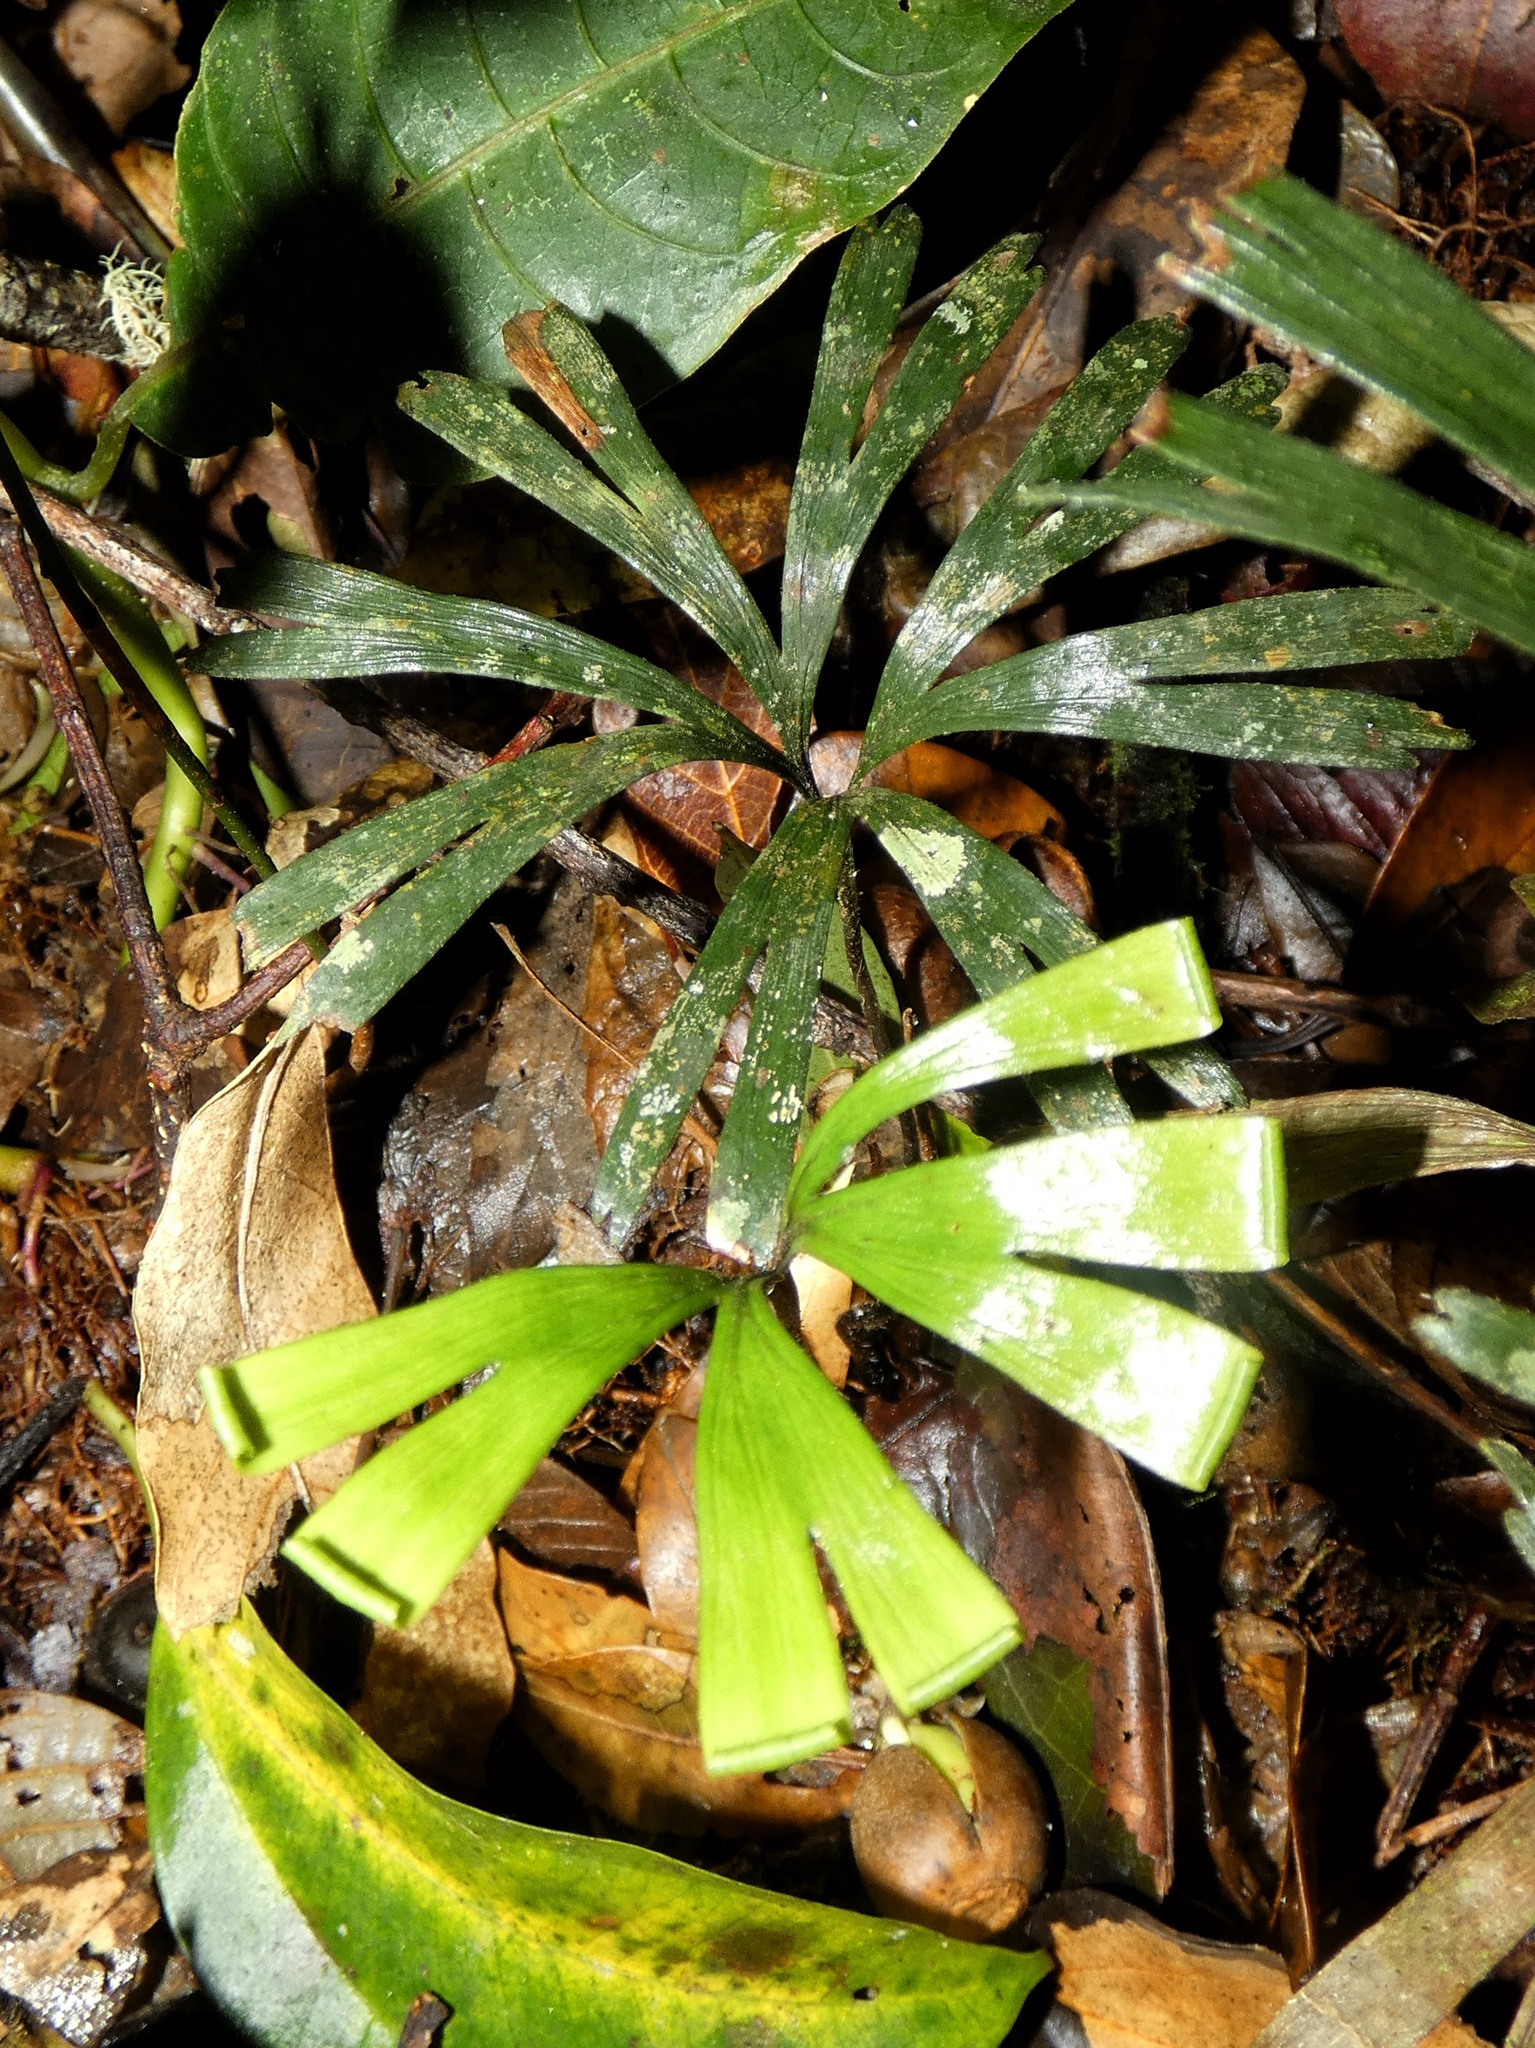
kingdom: Plantae
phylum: Tracheophyta
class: Polypodiopsida
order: Schizaeales
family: Schizaeaceae
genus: Schizaea
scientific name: Schizaea elegans
